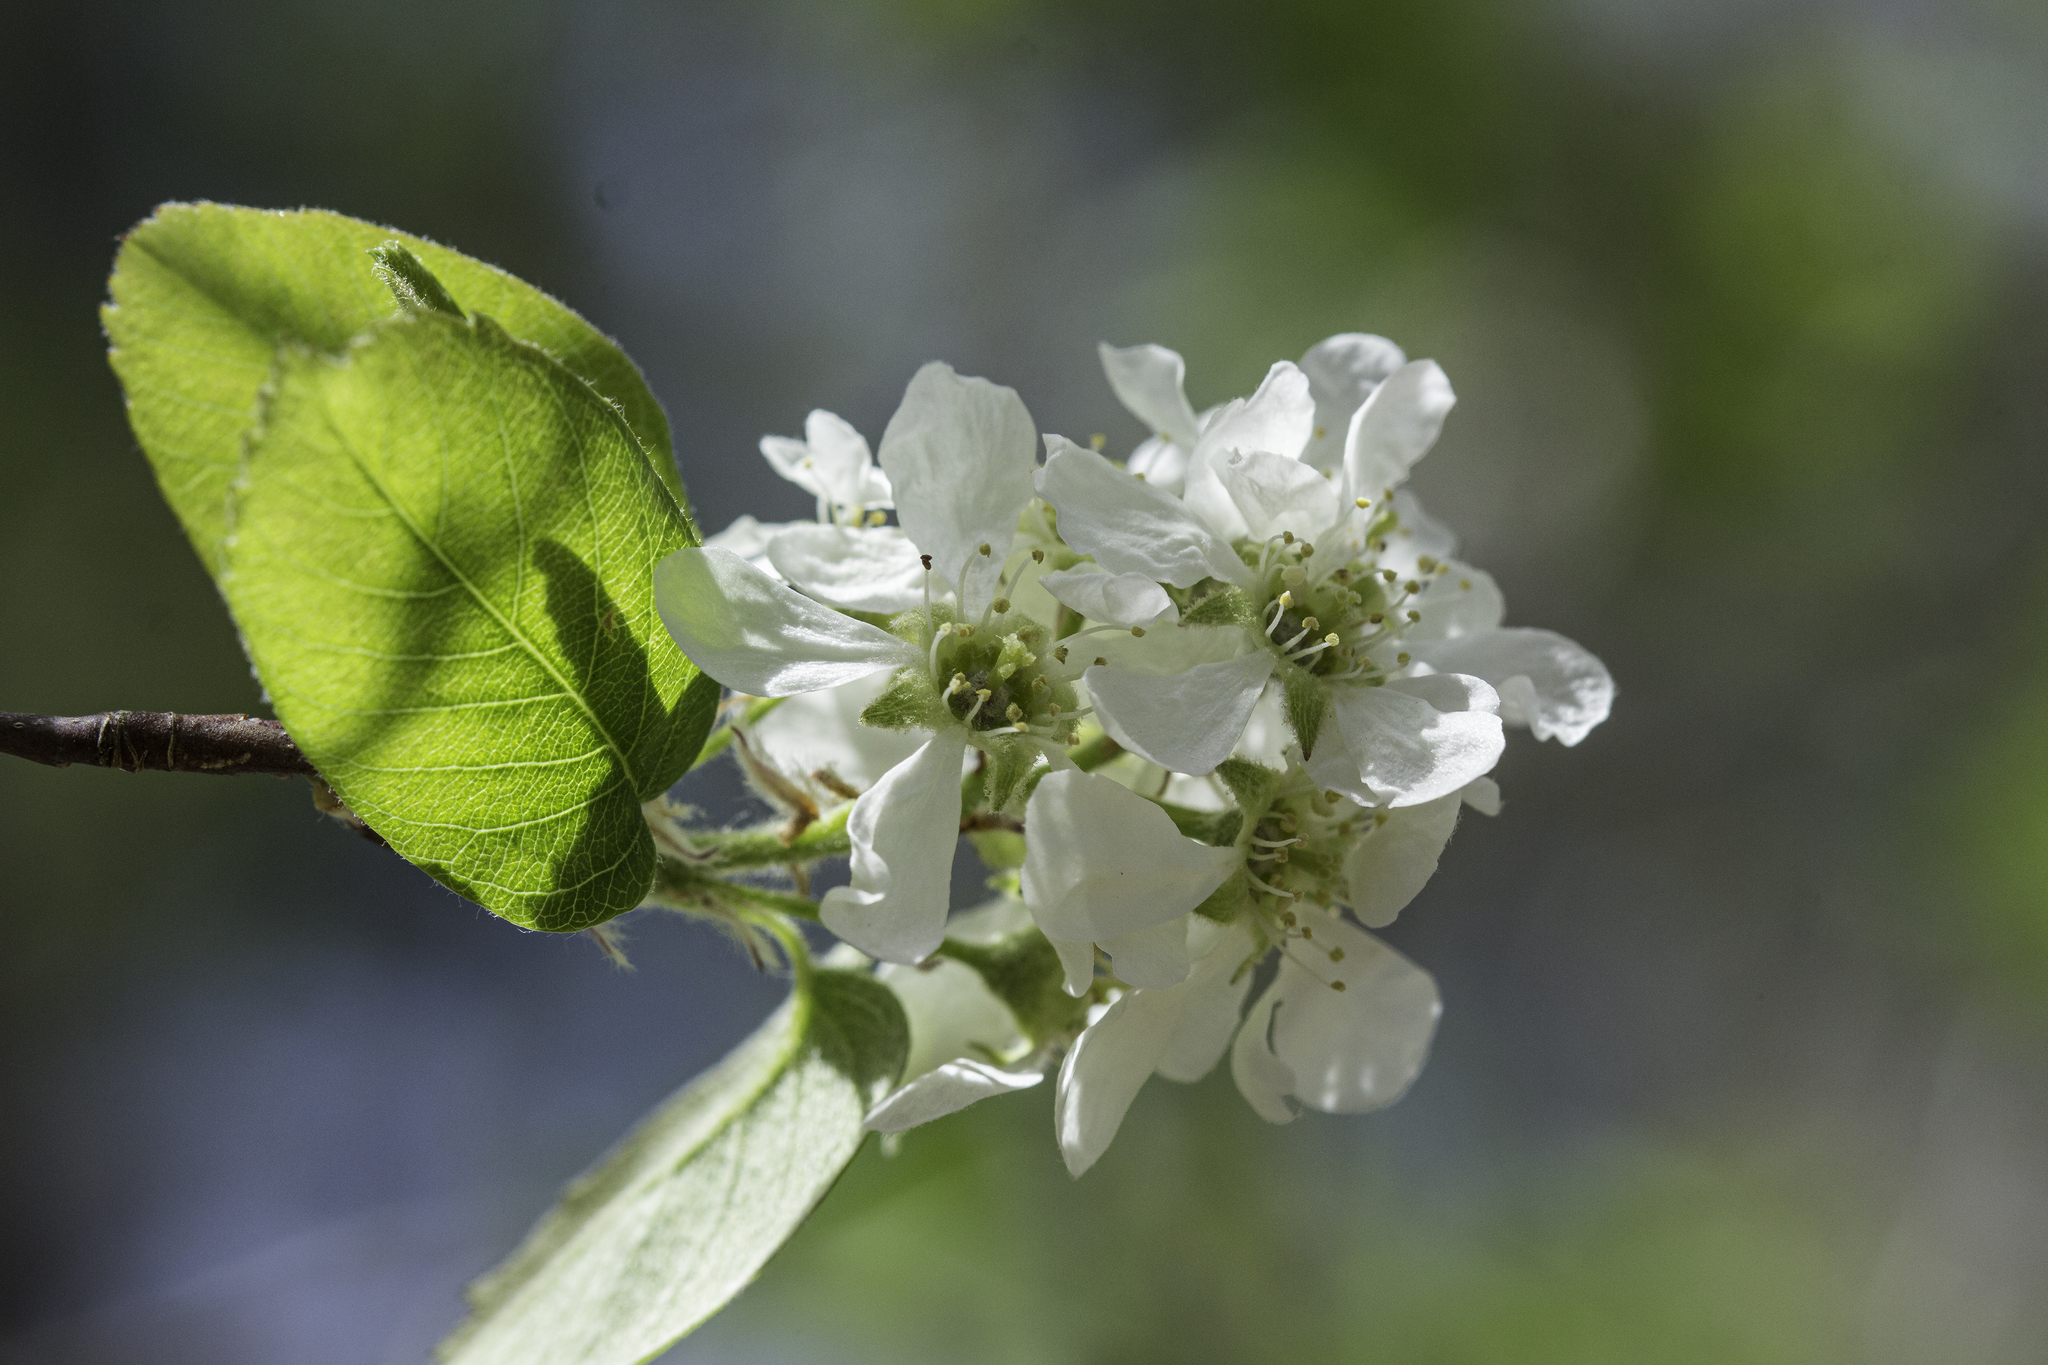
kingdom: Plantae
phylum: Tracheophyta
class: Magnoliopsida
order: Rosales
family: Rosaceae
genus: Amelanchier
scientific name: Amelanchier utahensis
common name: Utah serviceberry
